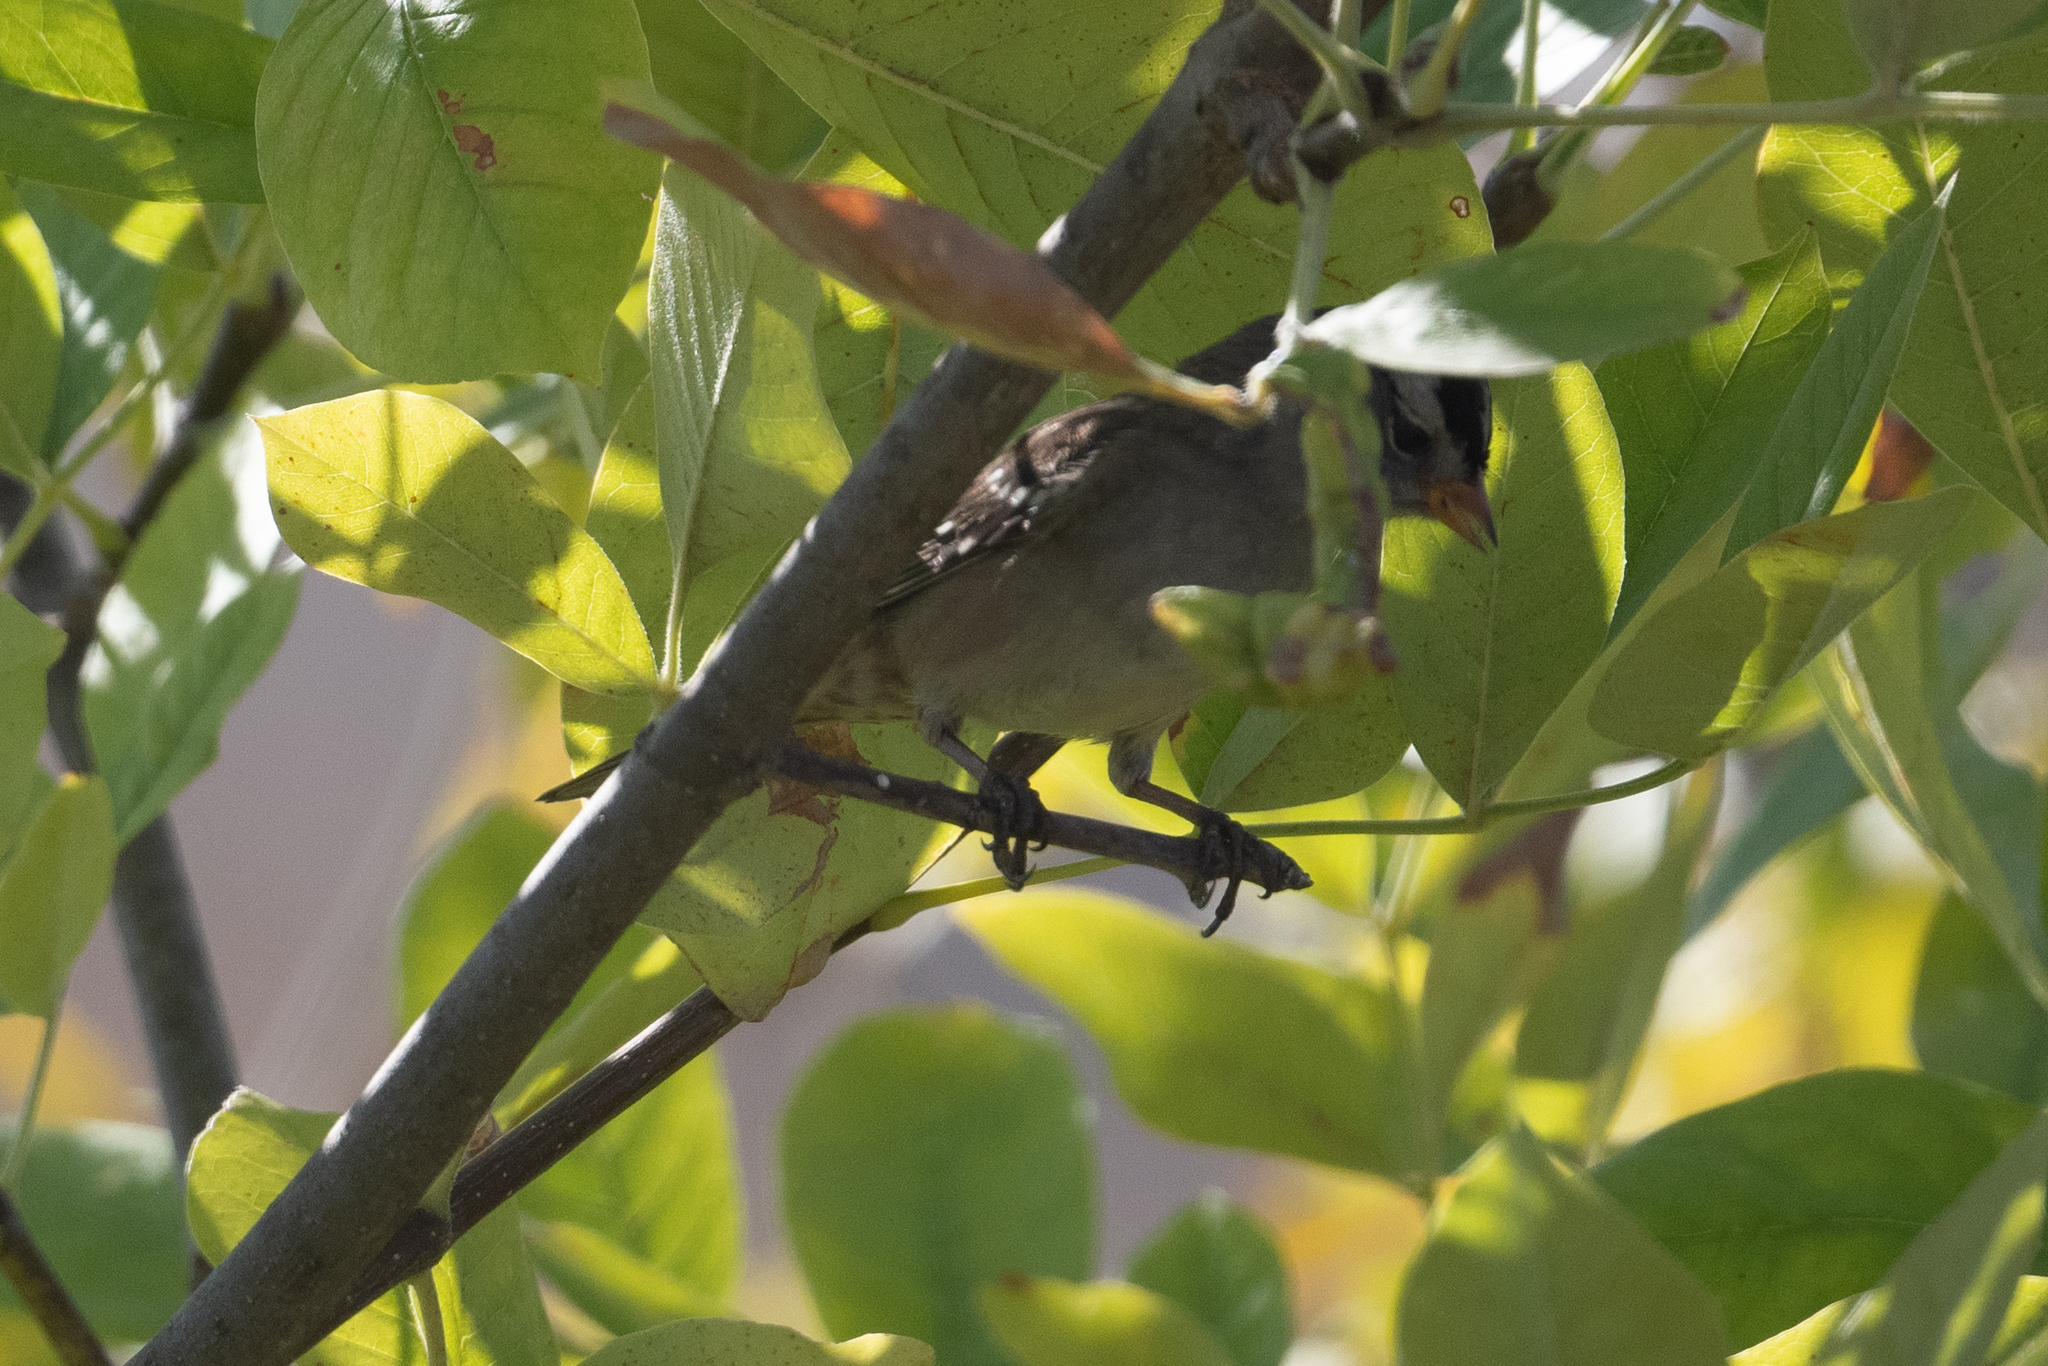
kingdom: Animalia
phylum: Chordata
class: Aves
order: Passeriformes
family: Passerellidae
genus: Zonotrichia
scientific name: Zonotrichia leucophrys
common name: White-crowned sparrow
